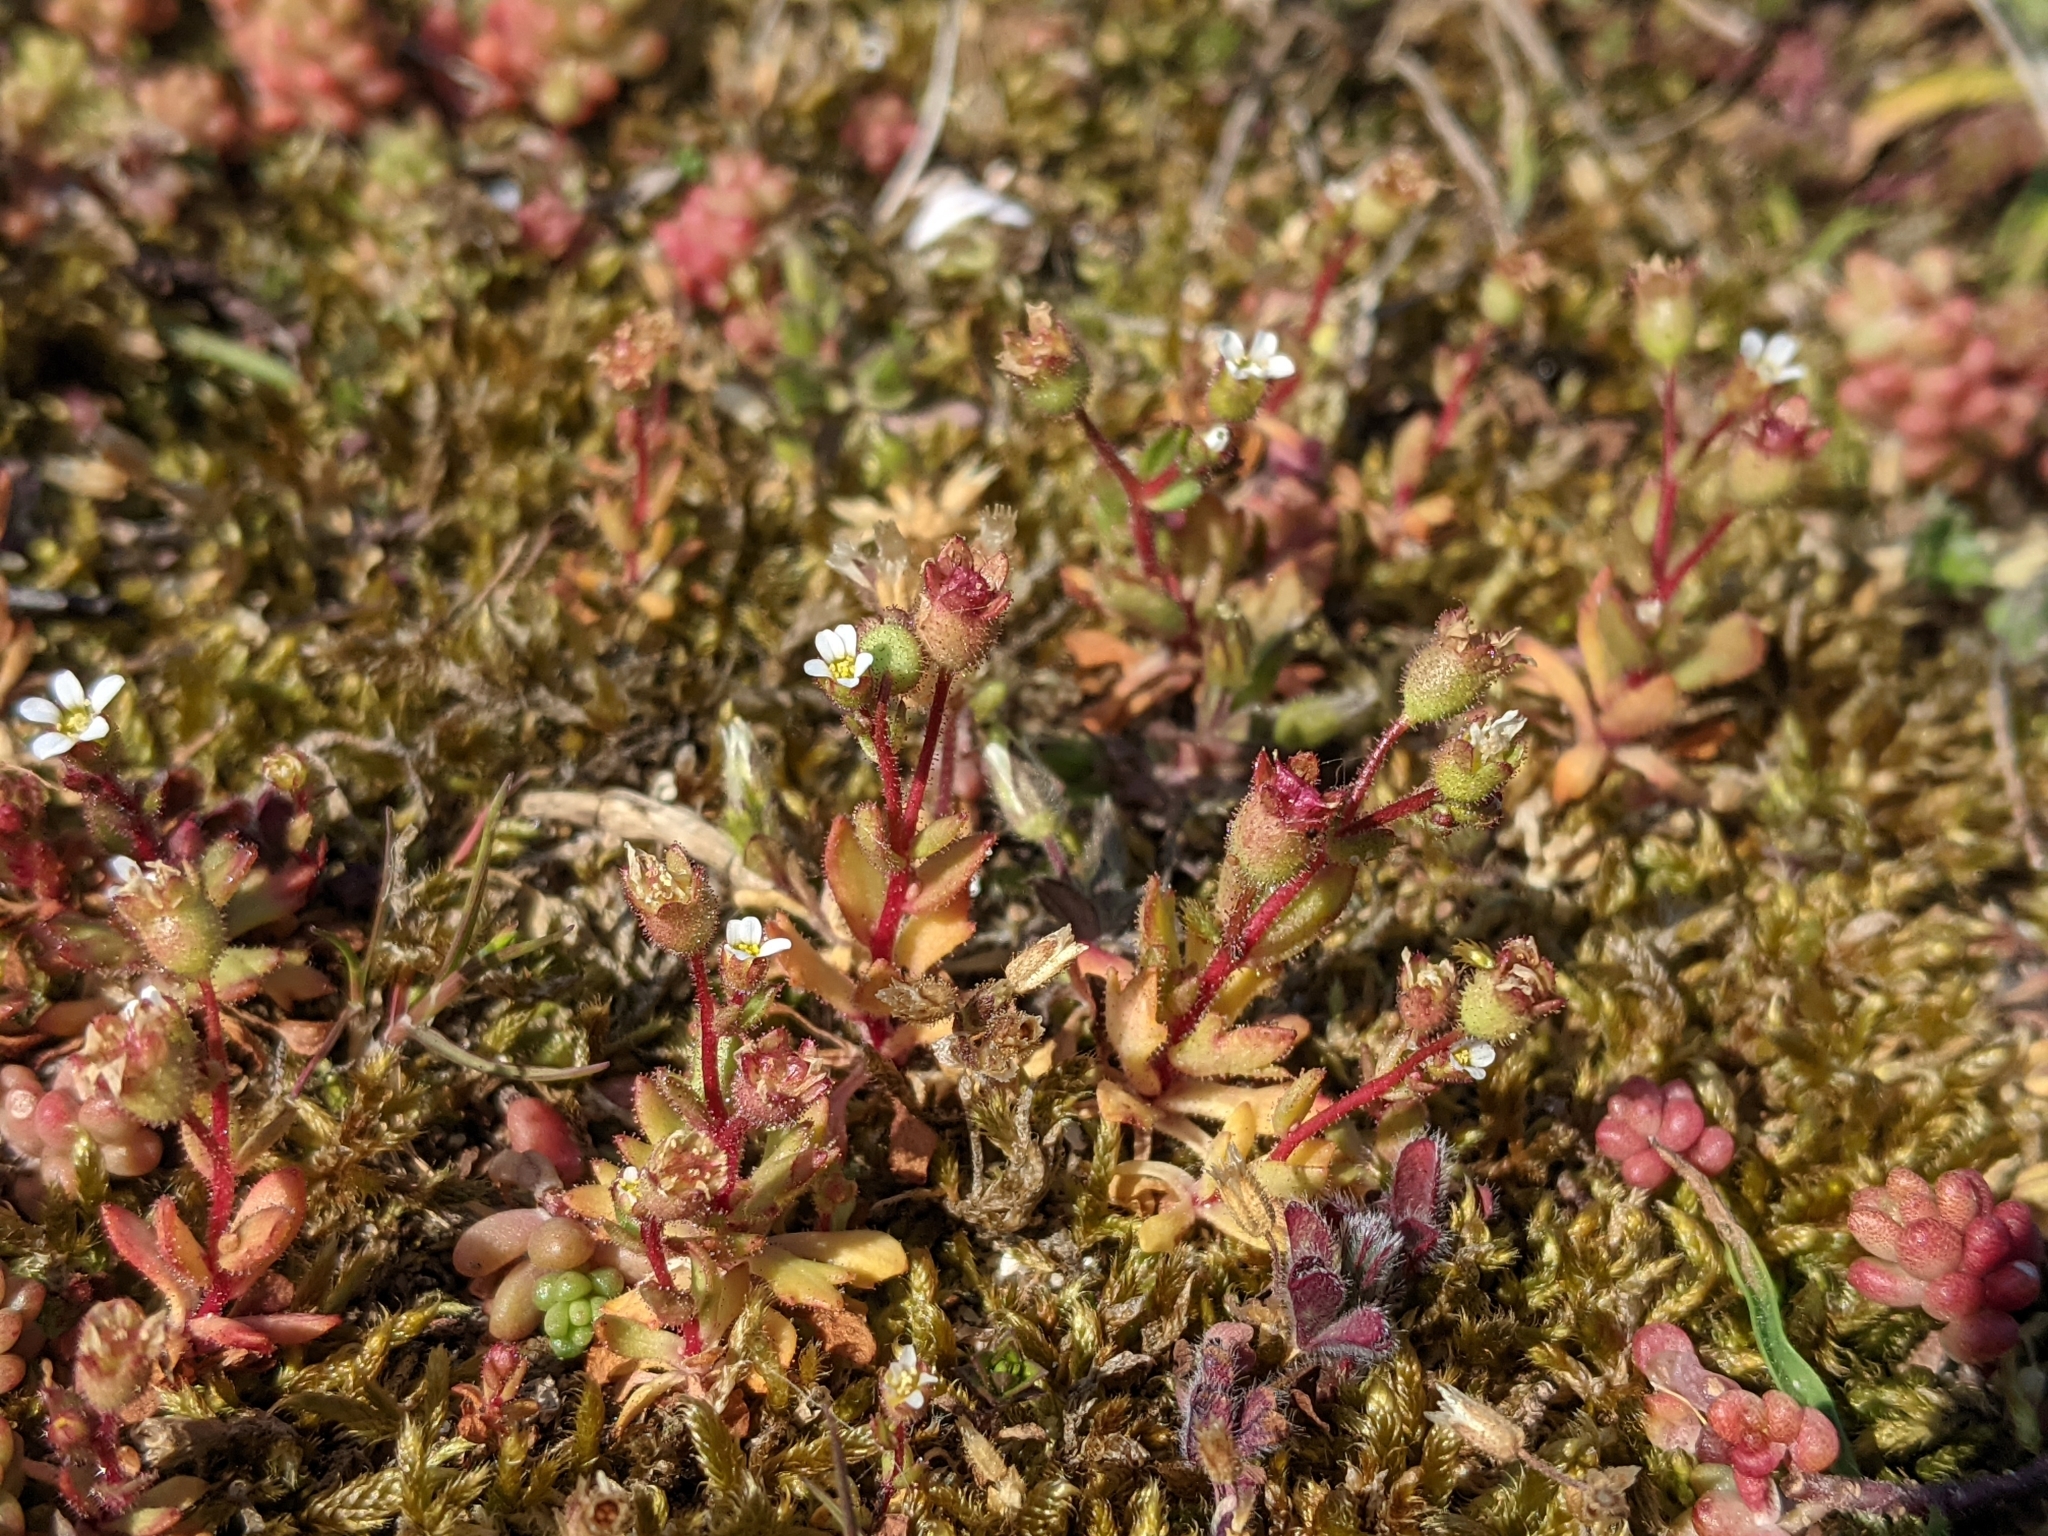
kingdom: Plantae
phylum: Tracheophyta
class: Magnoliopsida
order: Saxifragales
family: Saxifragaceae
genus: Saxifraga
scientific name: Saxifraga tridactylites
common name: Rue-leaved saxifrage
